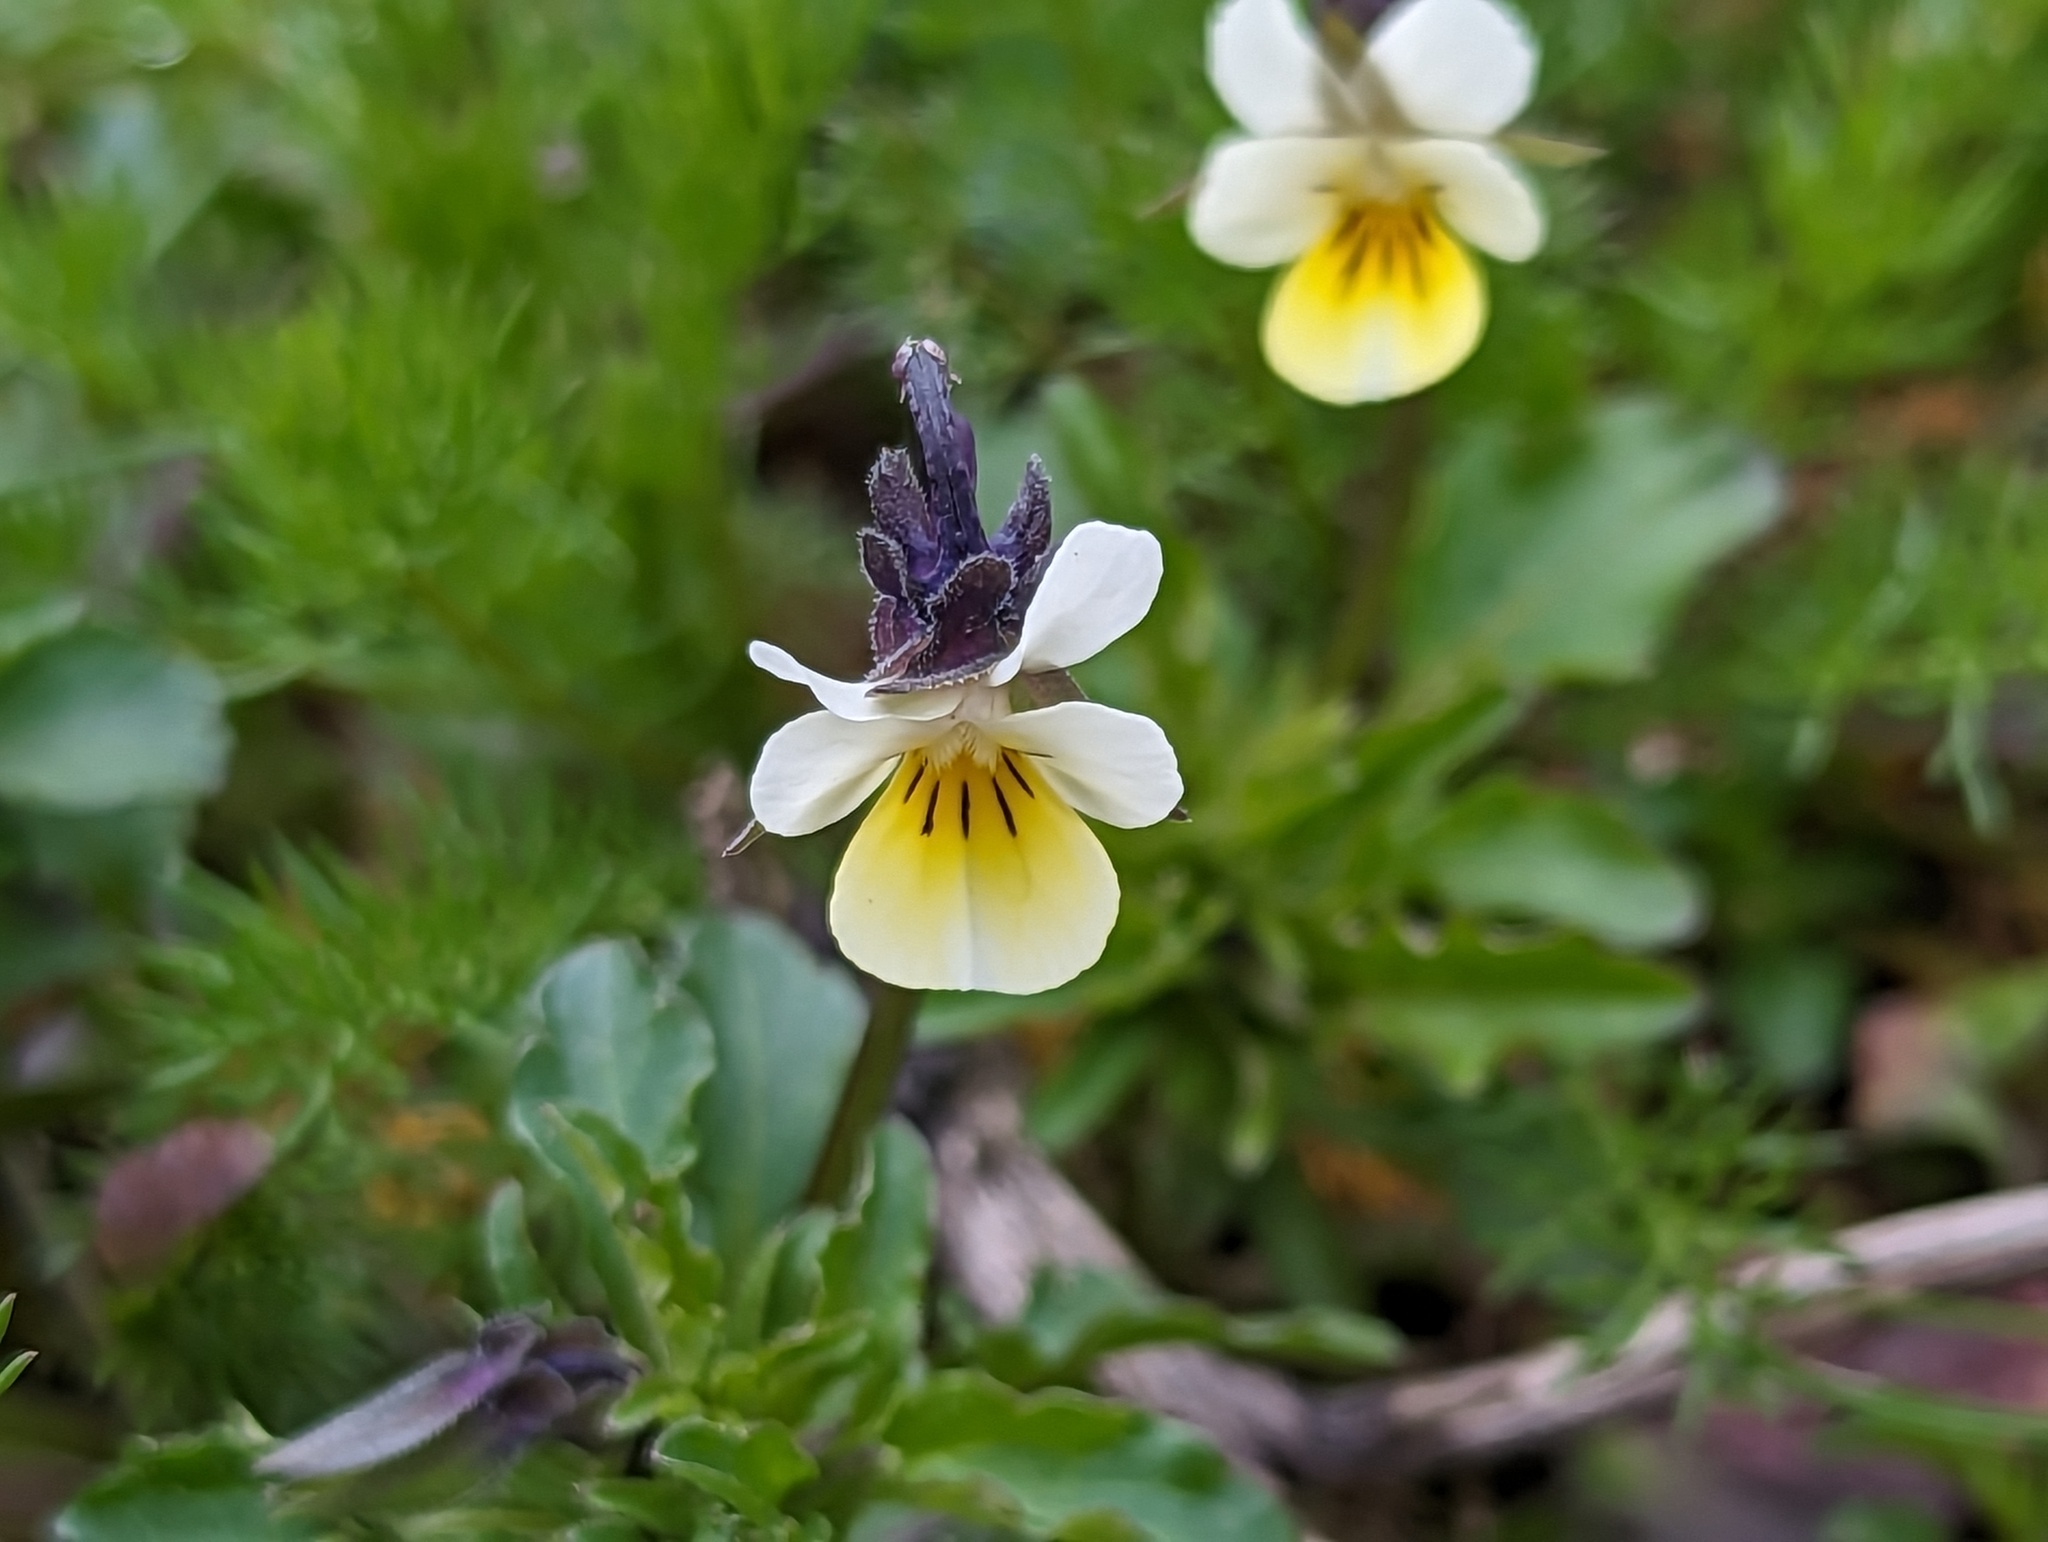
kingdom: Plantae
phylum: Tracheophyta
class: Magnoliopsida
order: Malpighiales
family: Violaceae
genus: Viola
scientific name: Viola arvensis
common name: Field pansy
